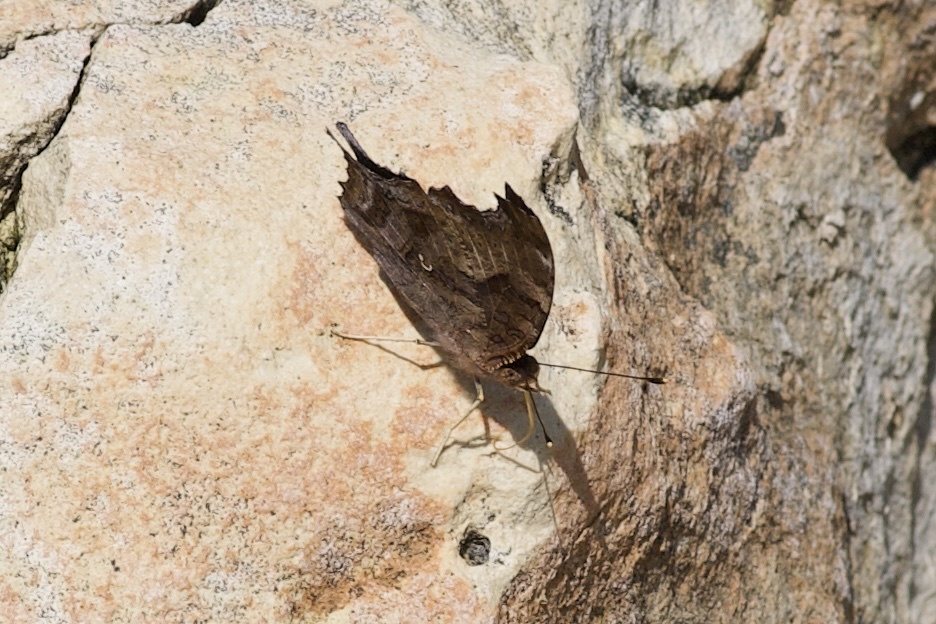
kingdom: Animalia
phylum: Arthropoda
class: Insecta
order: Lepidoptera
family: Nymphalidae
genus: Polygonia
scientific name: Polygonia interrogationis
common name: Question mark
